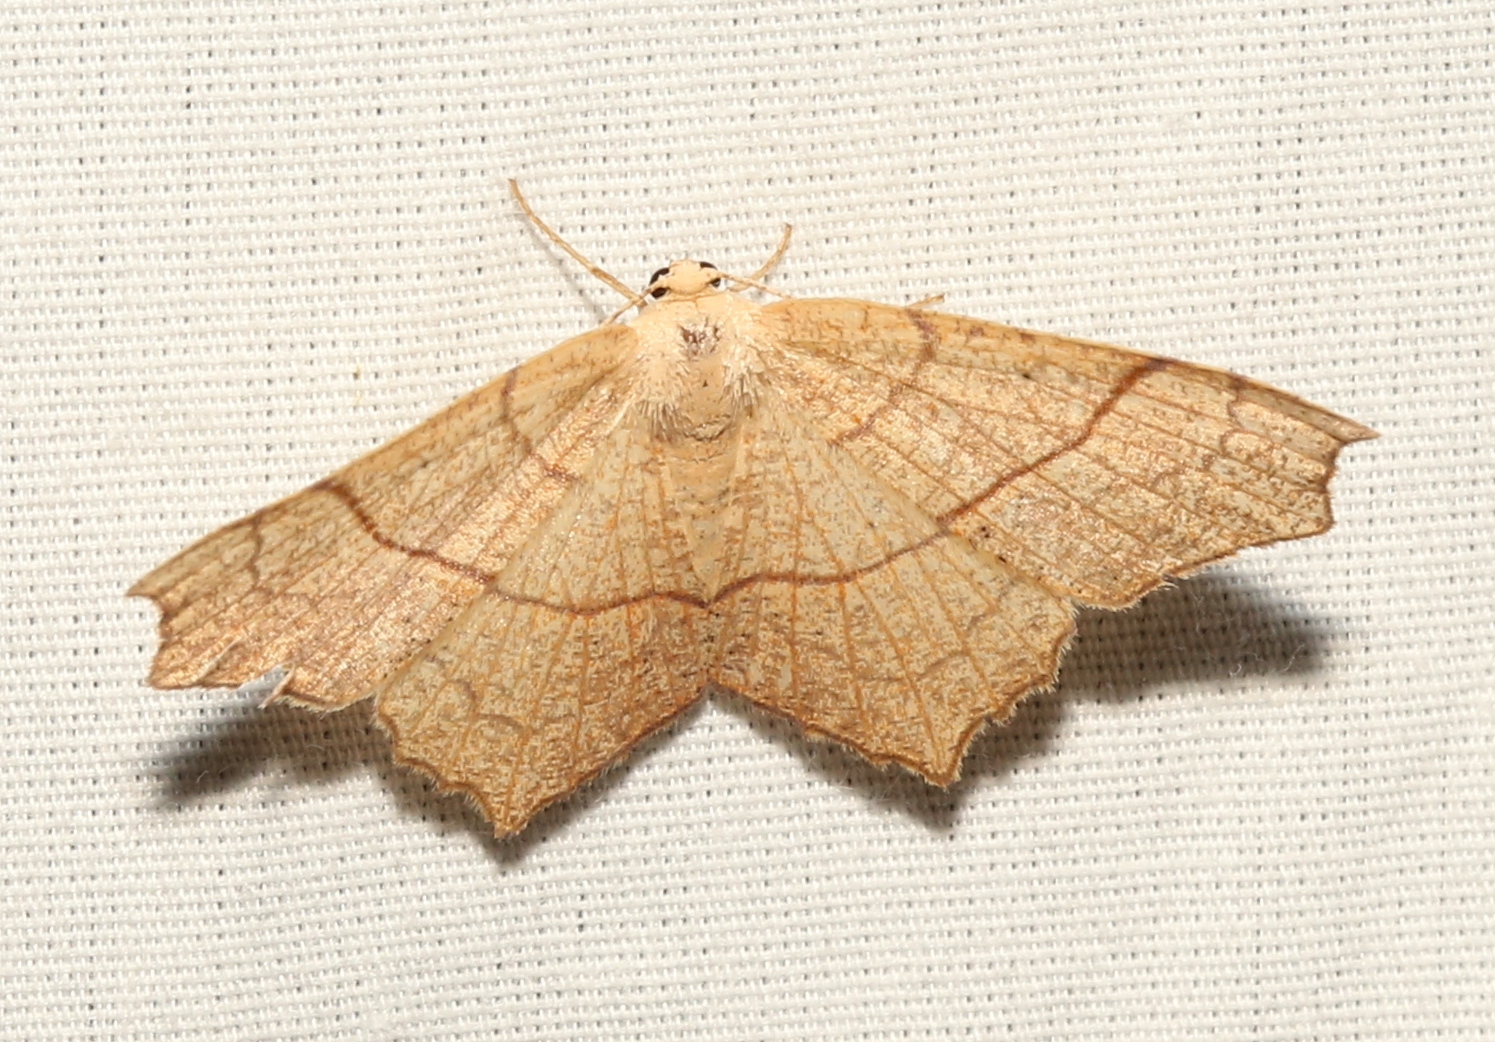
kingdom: Animalia
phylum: Arthropoda
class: Insecta
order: Lepidoptera
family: Geometridae
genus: Besma
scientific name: Besma quercivoraria
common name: Oak besma
